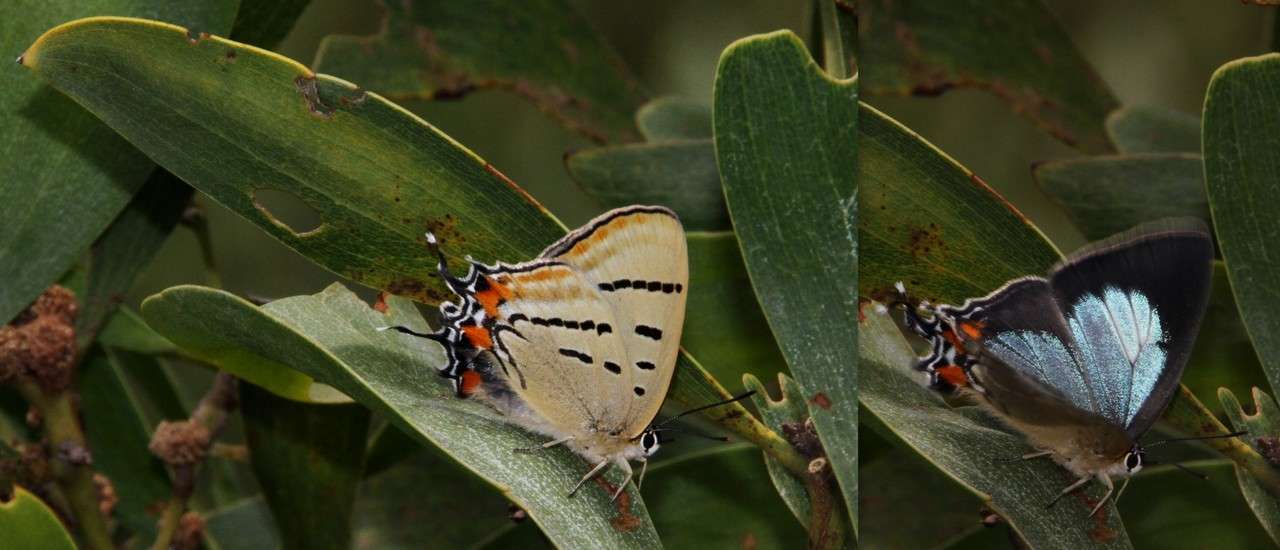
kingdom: Animalia
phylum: Arthropoda
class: Insecta
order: Lepidoptera
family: Lycaenidae
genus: Jalmenus
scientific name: Jalmenus evagoras
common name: Common imperial blue
